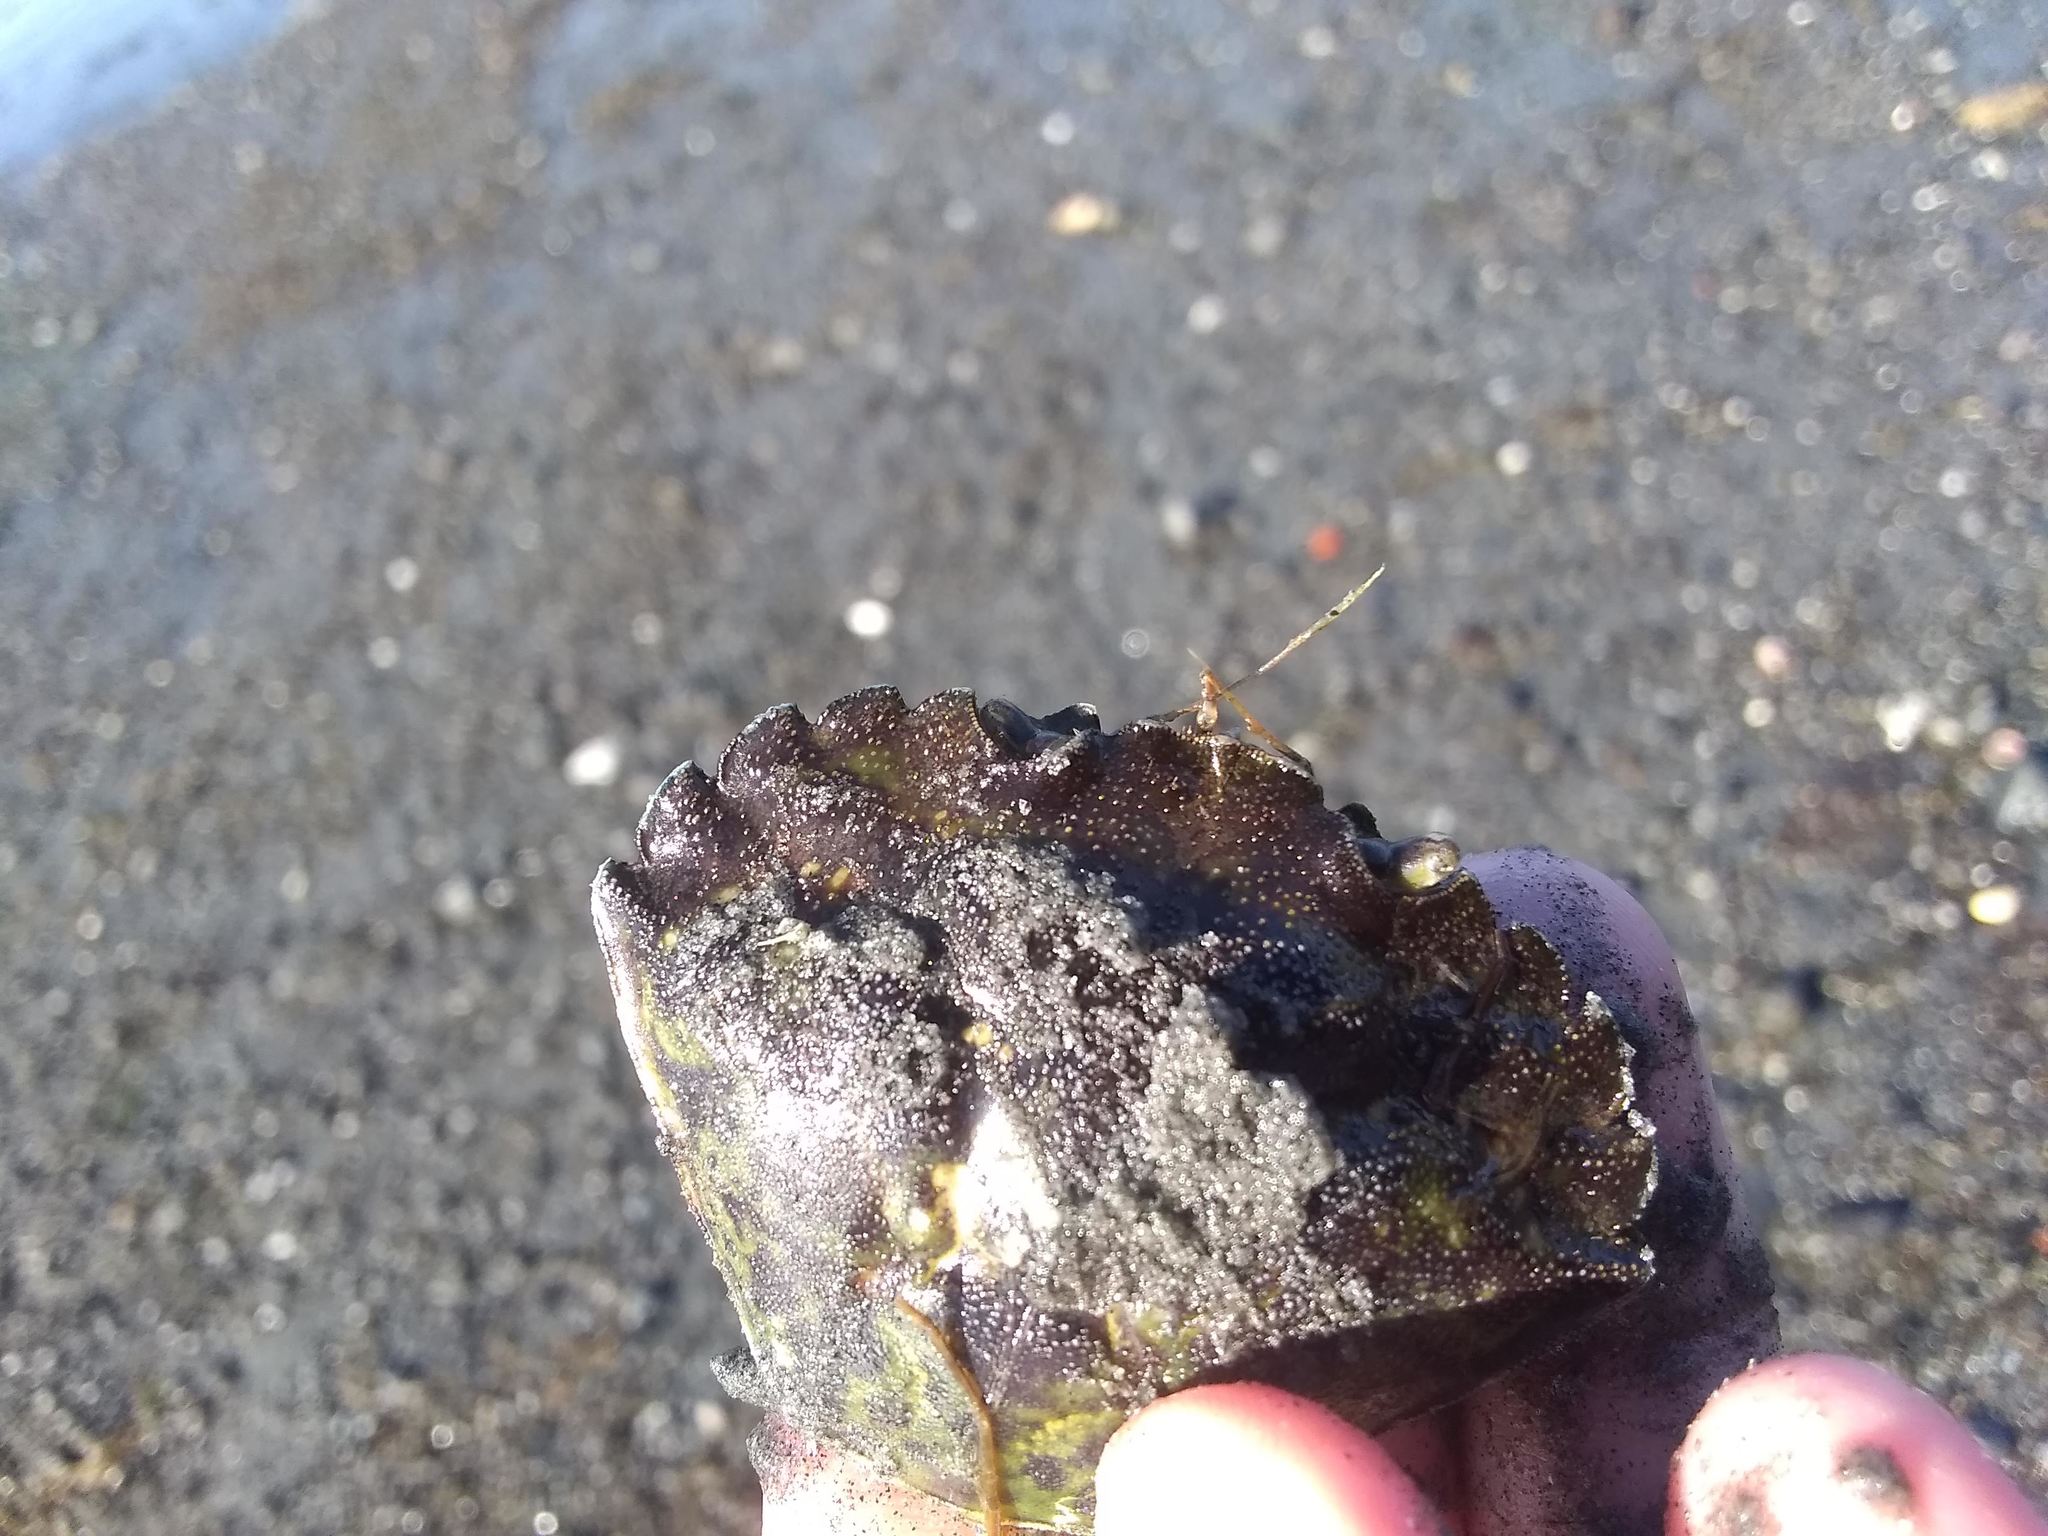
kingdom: Animalia
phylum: Arthropoda
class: Malacostraca
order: Decapoda
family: Carcinidae
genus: Carcinus
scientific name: Carcinus maenas
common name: European green crab
